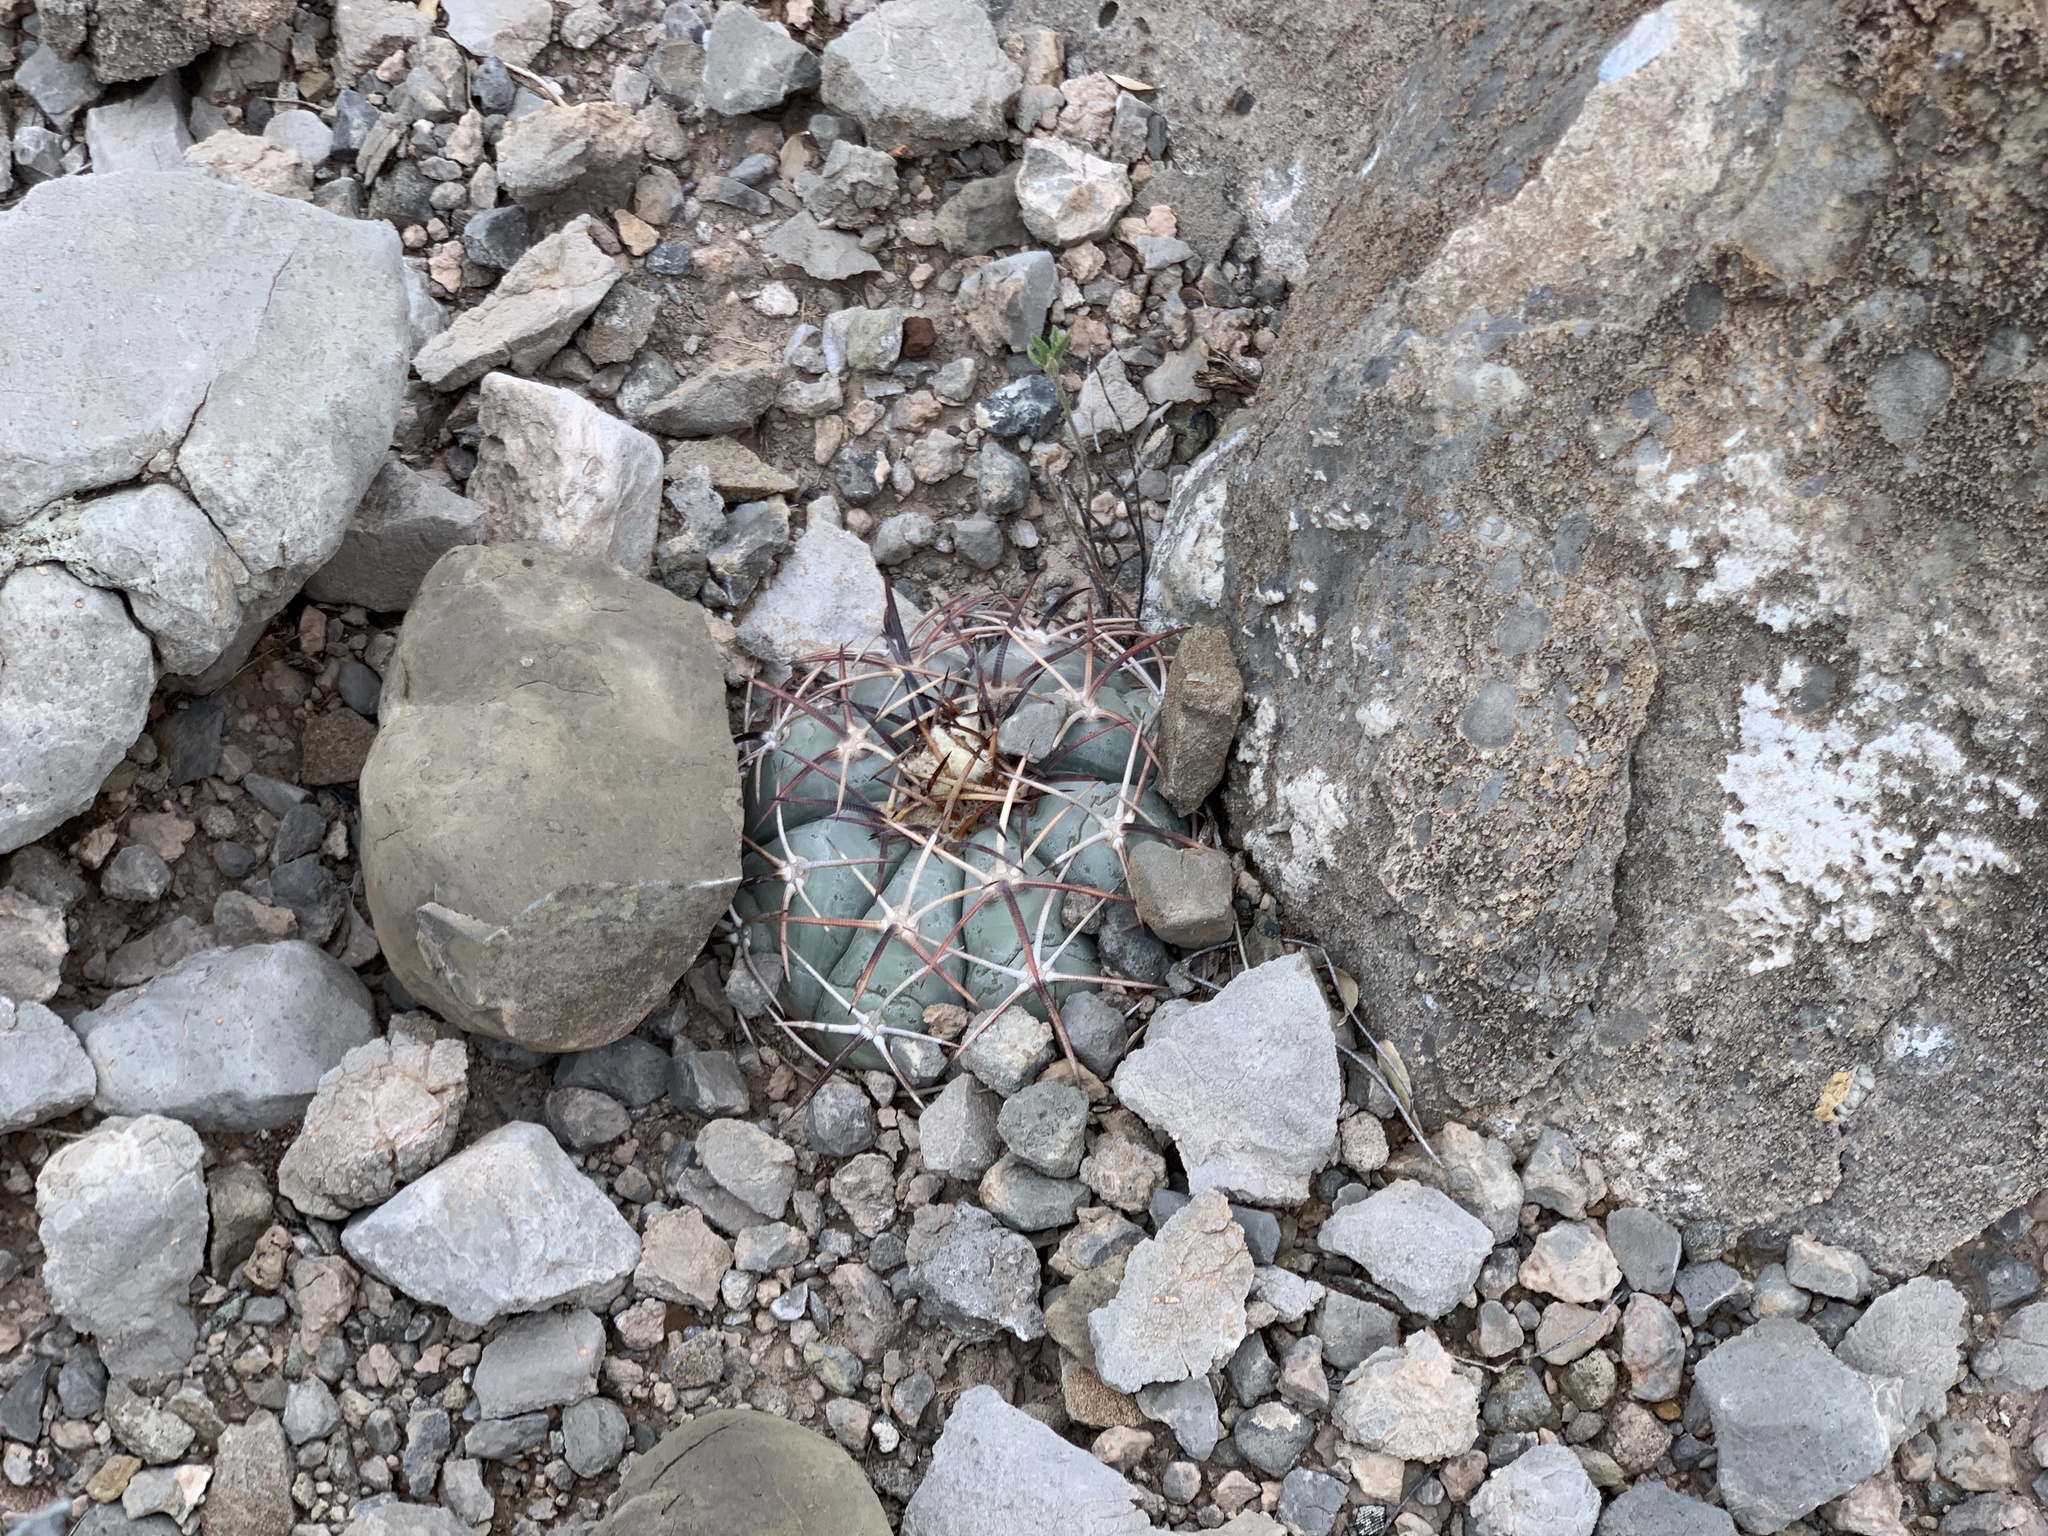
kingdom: Plantae
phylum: Tracheophyta
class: Magnoliopsida
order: Caryophyllales
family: Cactaceae
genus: Echinocactus
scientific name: Echinocactus horizonthalonius
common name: Devilshead
